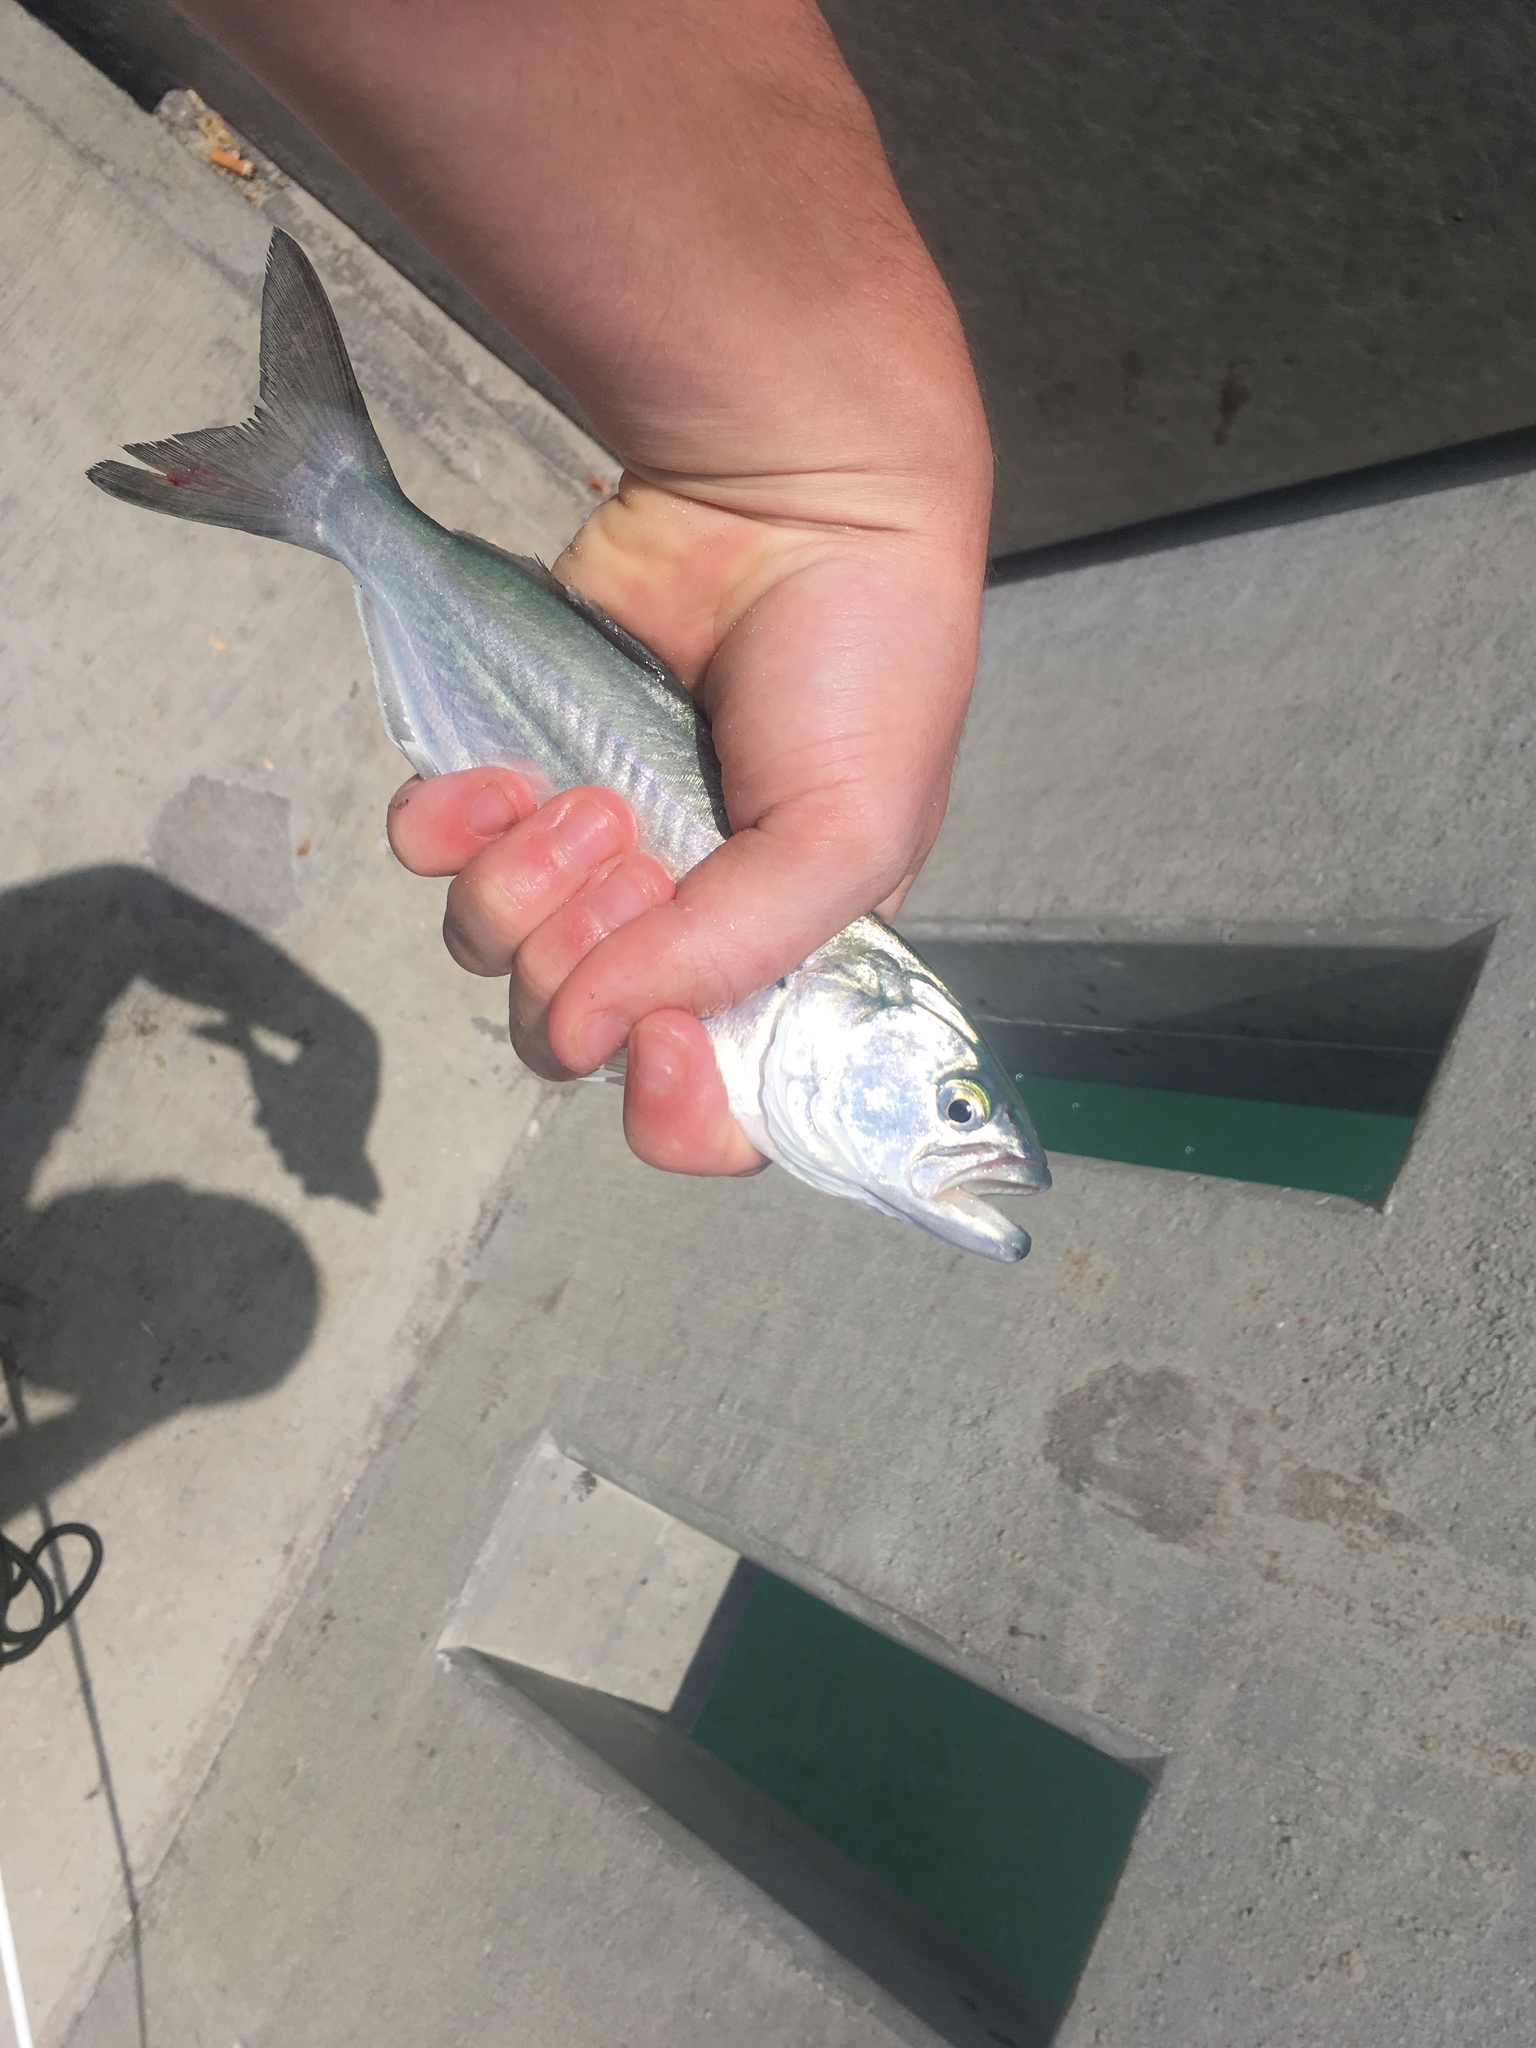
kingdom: Animalia
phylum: Chordata
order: Perciformes
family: Pomatomidae
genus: Pomatomus
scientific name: Pomatomus saltatrix
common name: Bluefish
